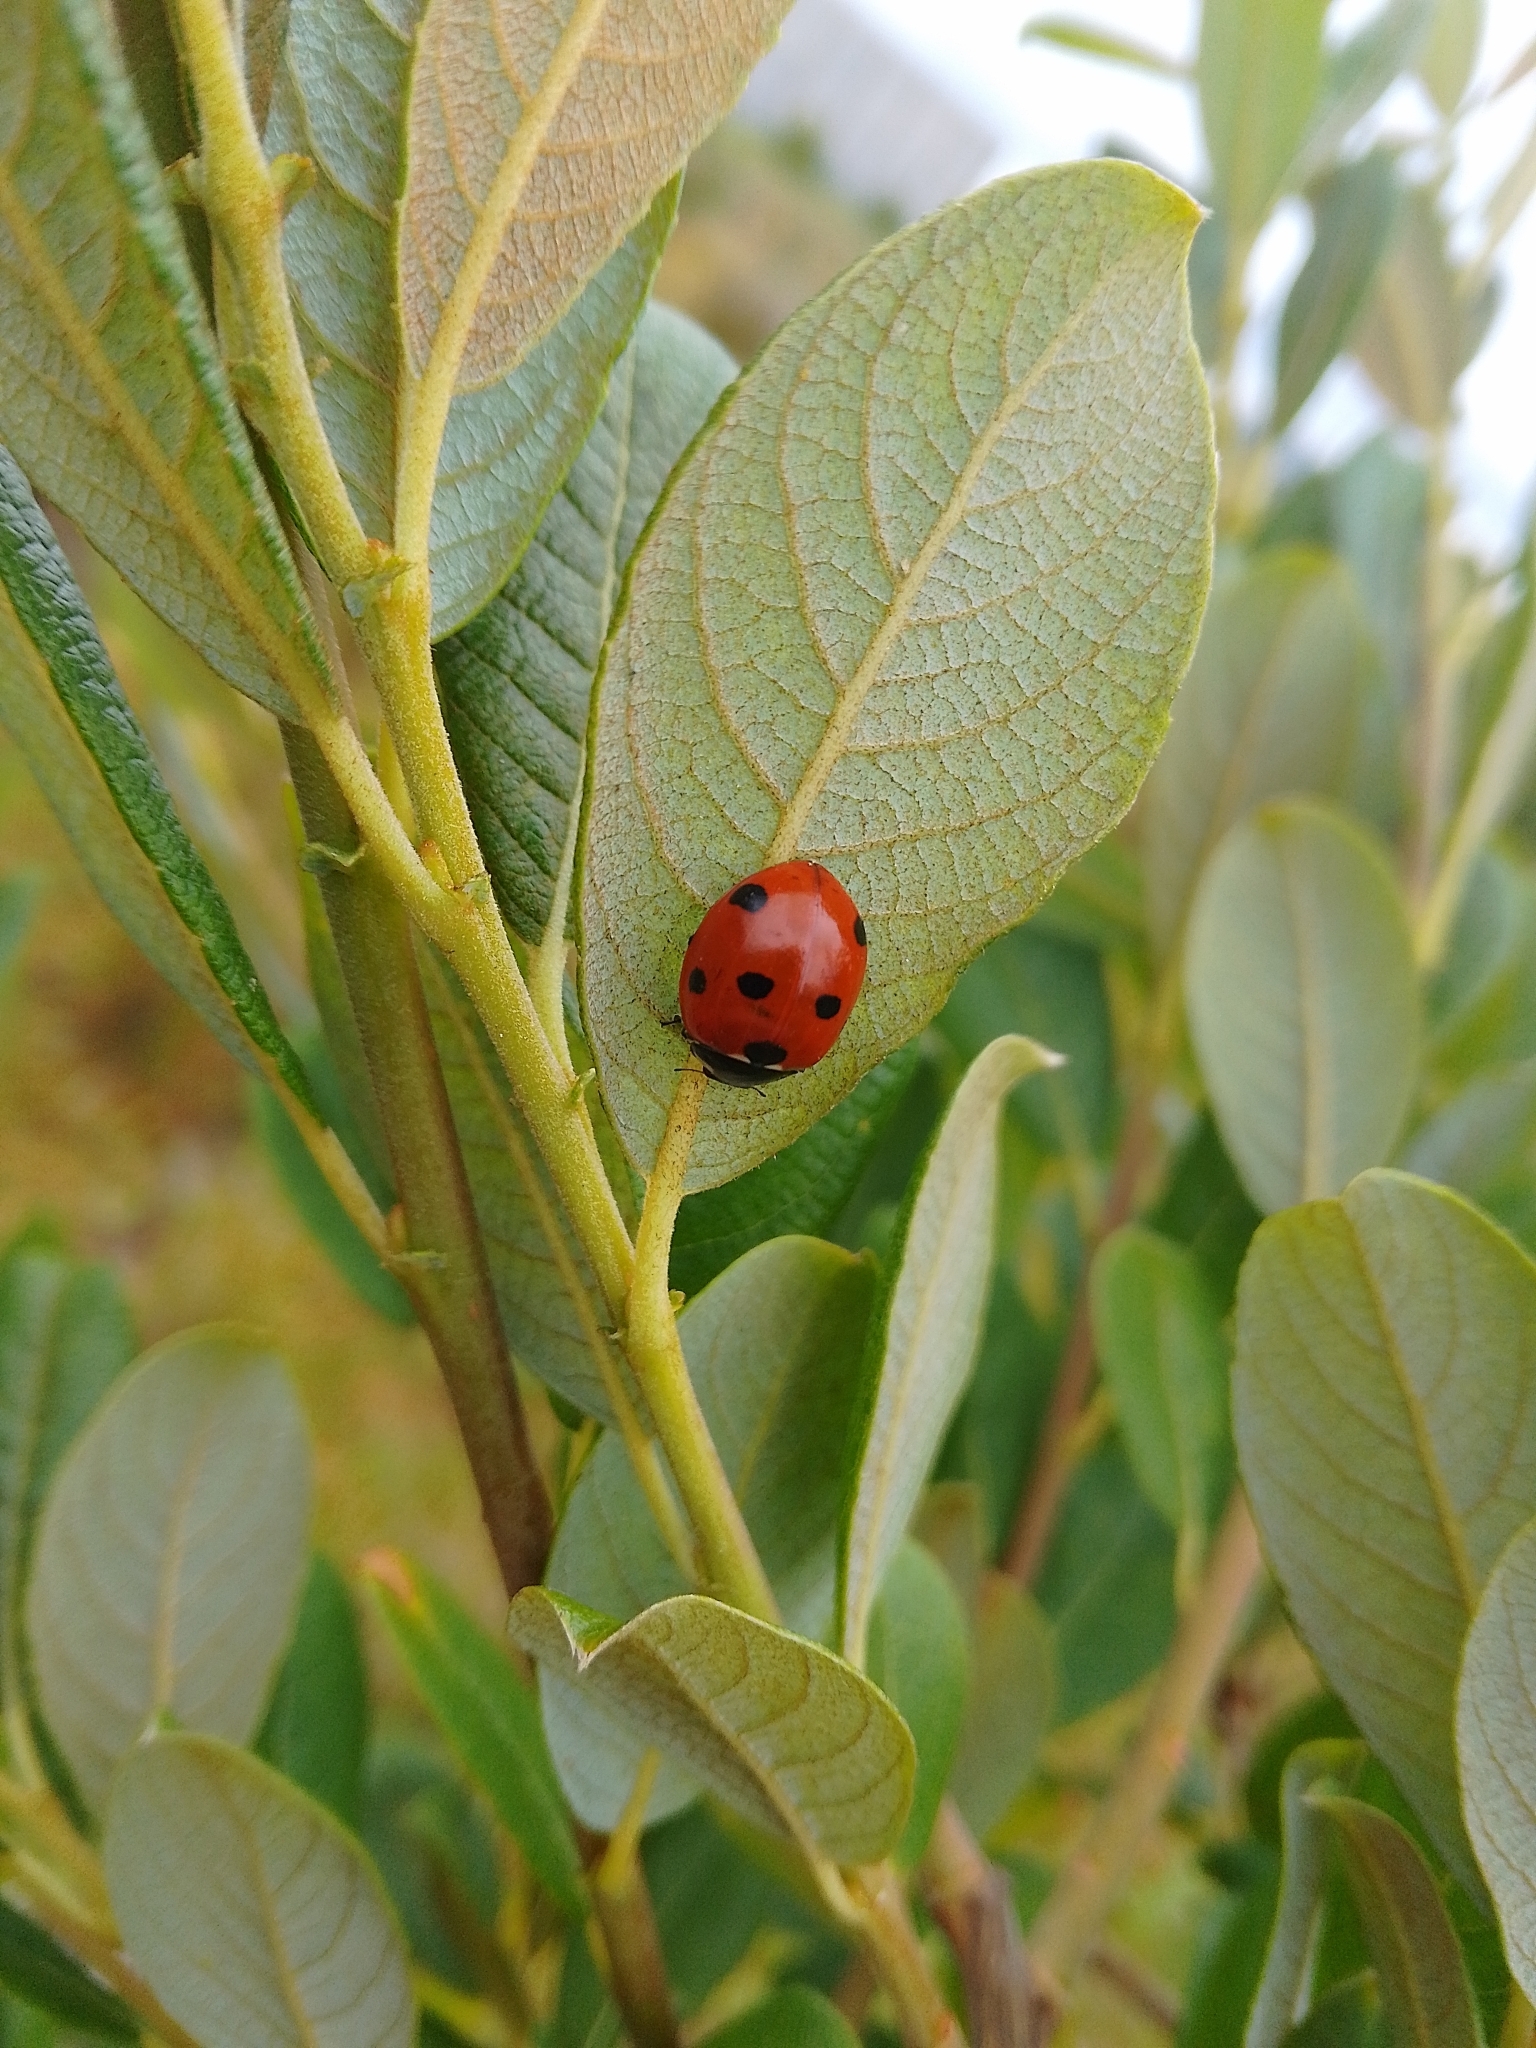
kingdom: Animalia
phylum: Arthropoda
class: Insecta
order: Coleoptera
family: Coccinellidae
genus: Coccinella
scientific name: Coccinella septempunctata
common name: Sevenspotted lady beetle
